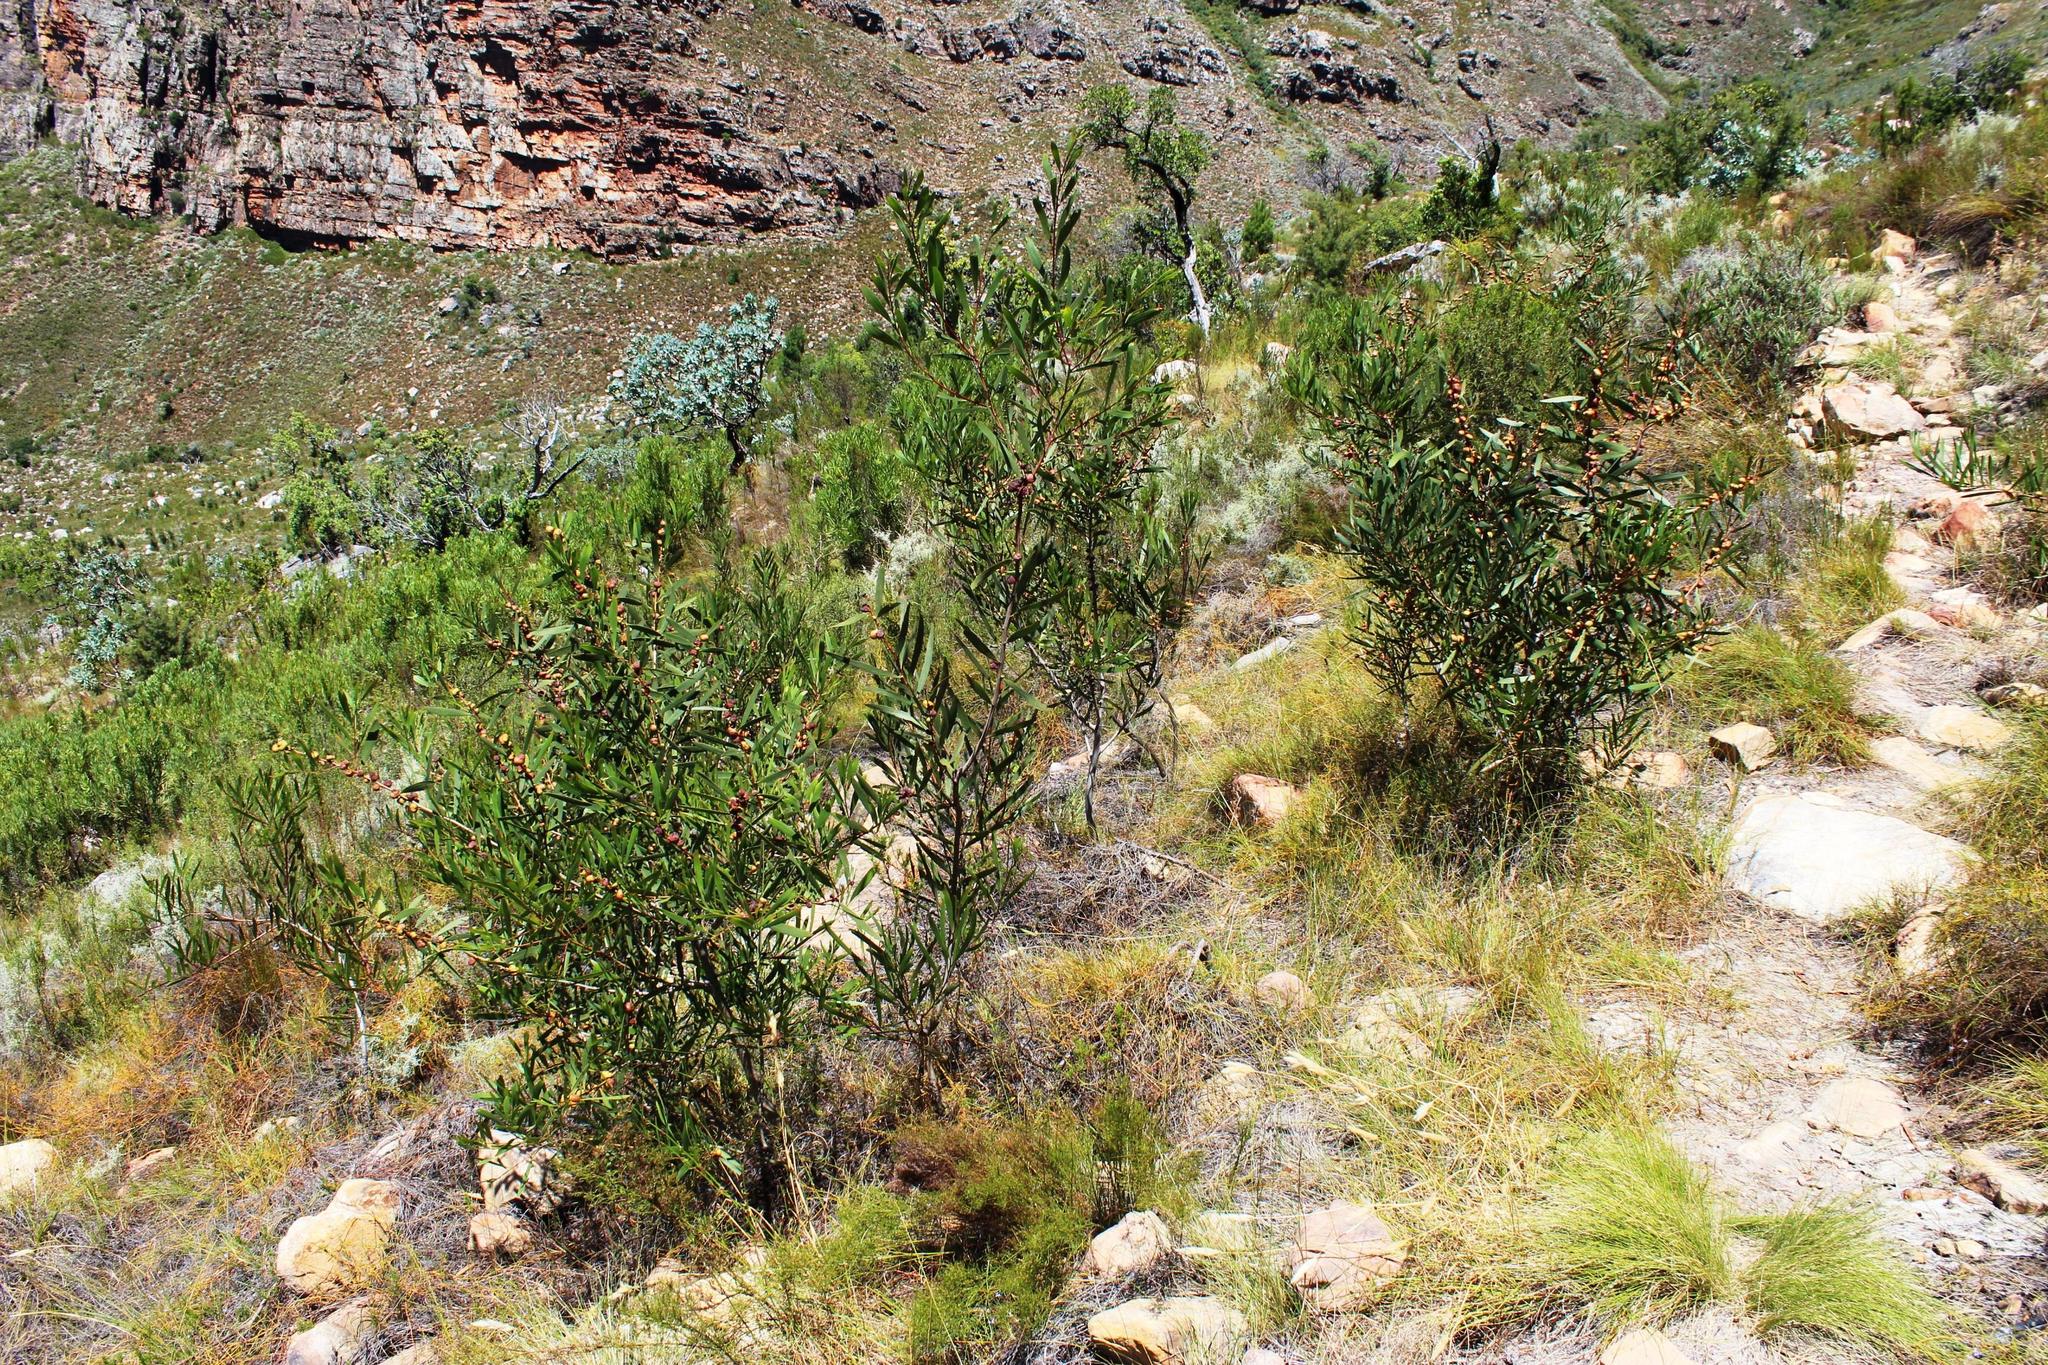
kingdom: Plantae
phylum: Tracheophyta
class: Magnoliopsida
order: Fabales
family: Fabaceae
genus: Acacia
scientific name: Acacia longifolia
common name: Sydney golden wattle
